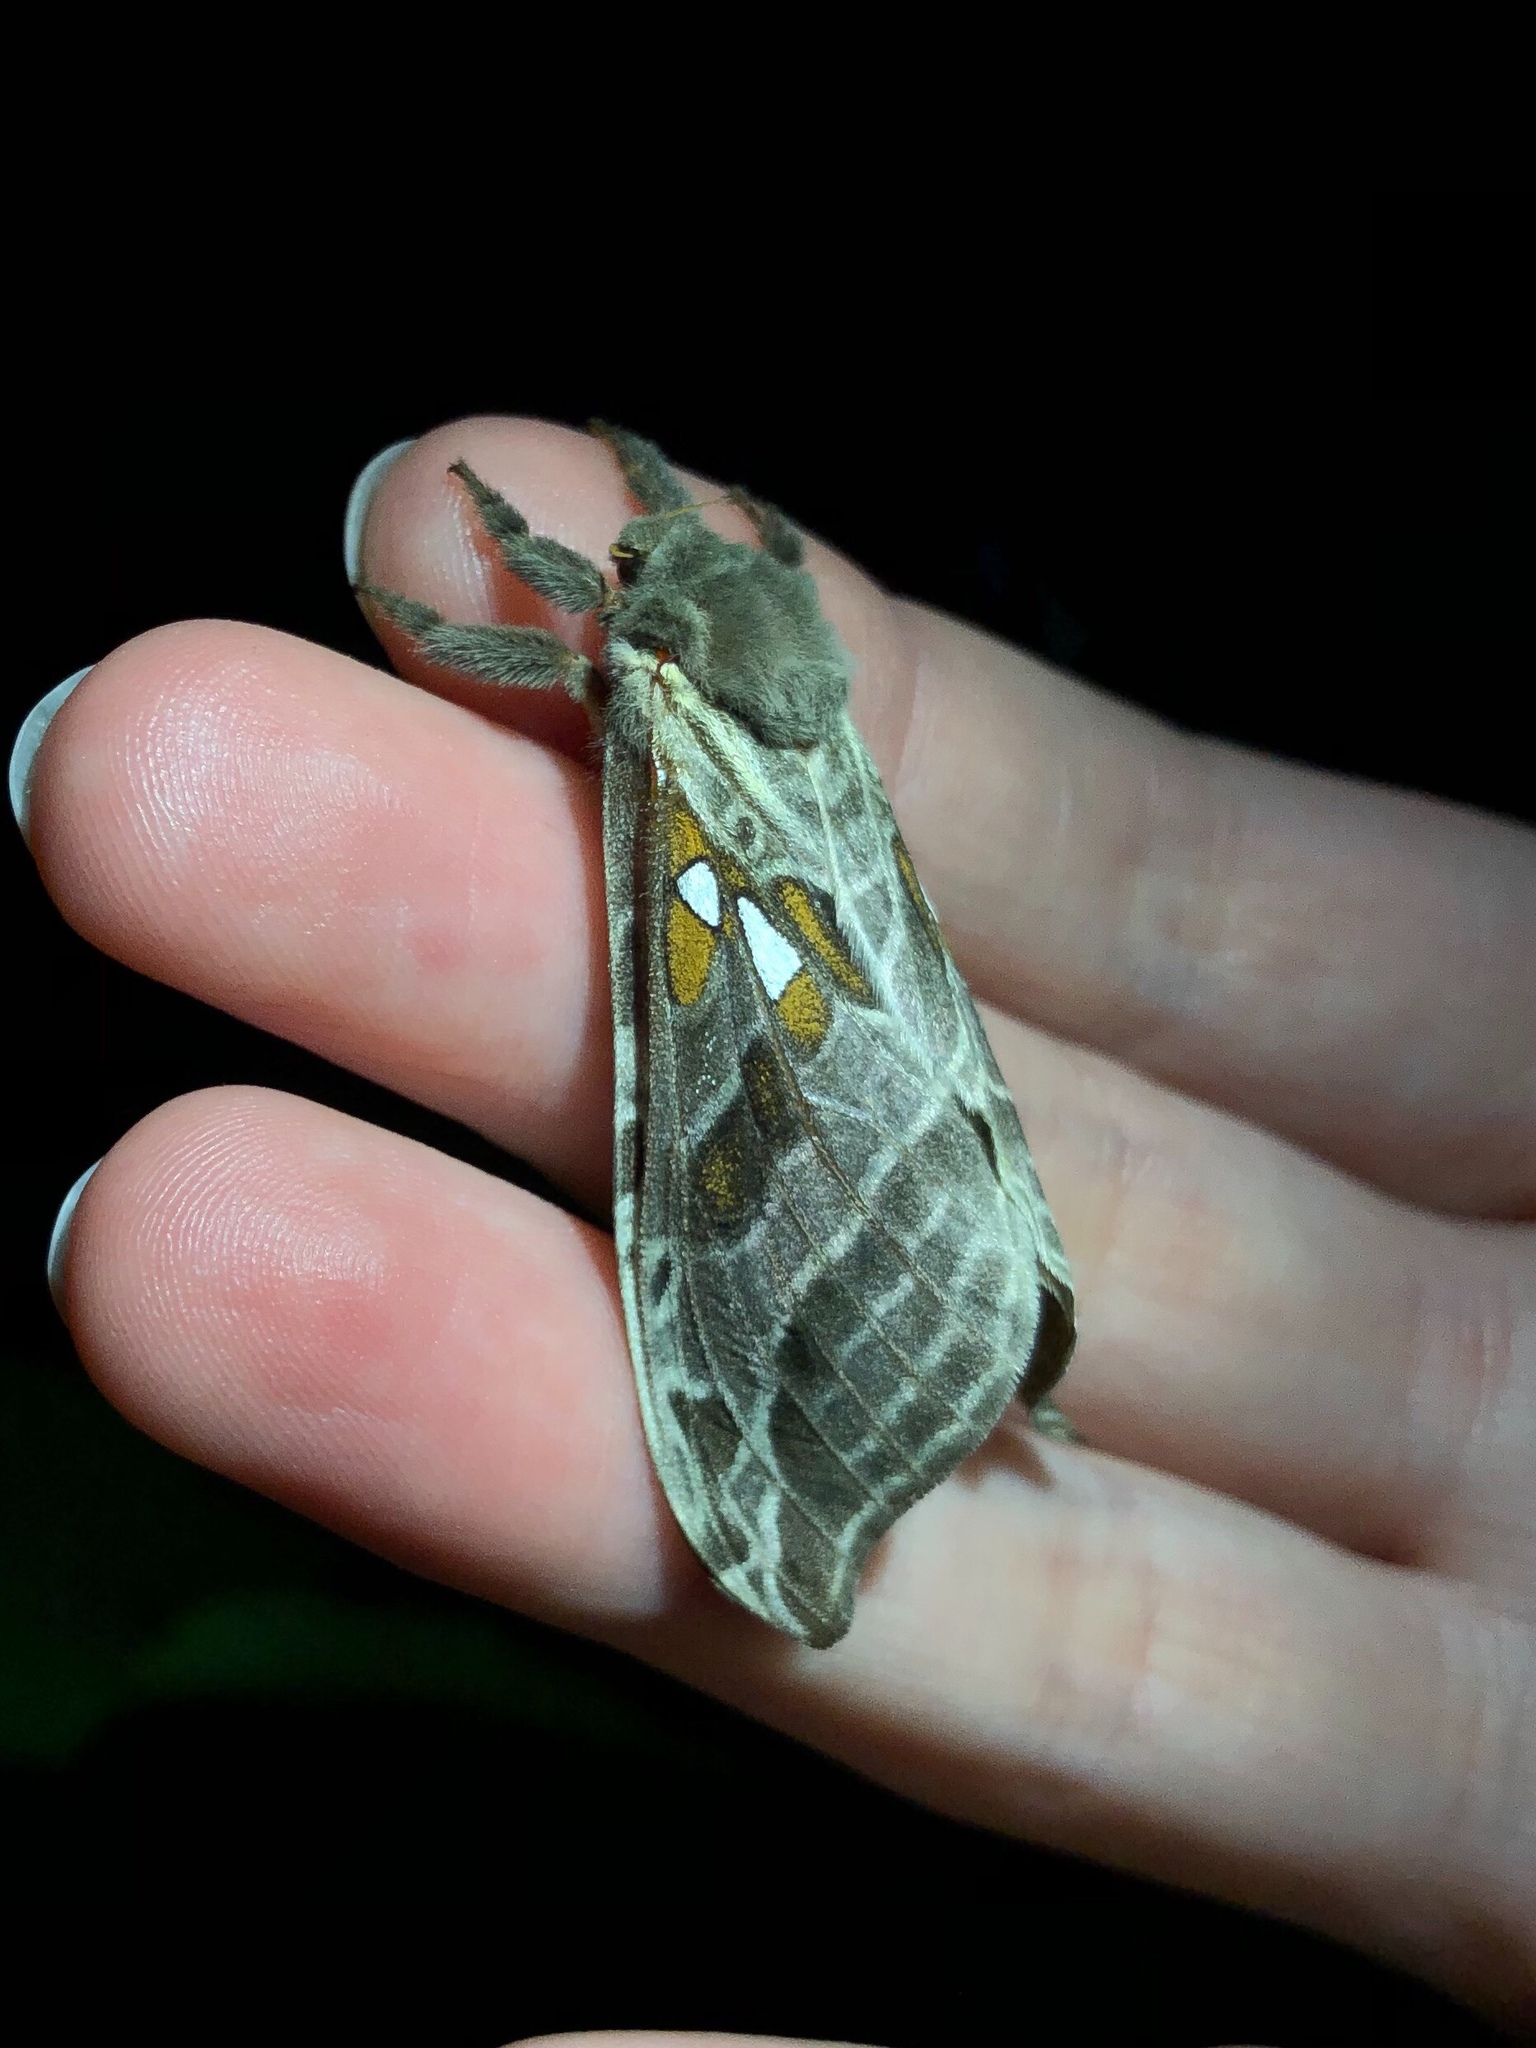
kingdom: Animalia
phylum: Arthropoda
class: Insecta
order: Lepidoptera
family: Hepialidae
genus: Sthenopis
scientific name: Sthenopis argenteomaculatus
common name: Silver-spotted ghost moth
